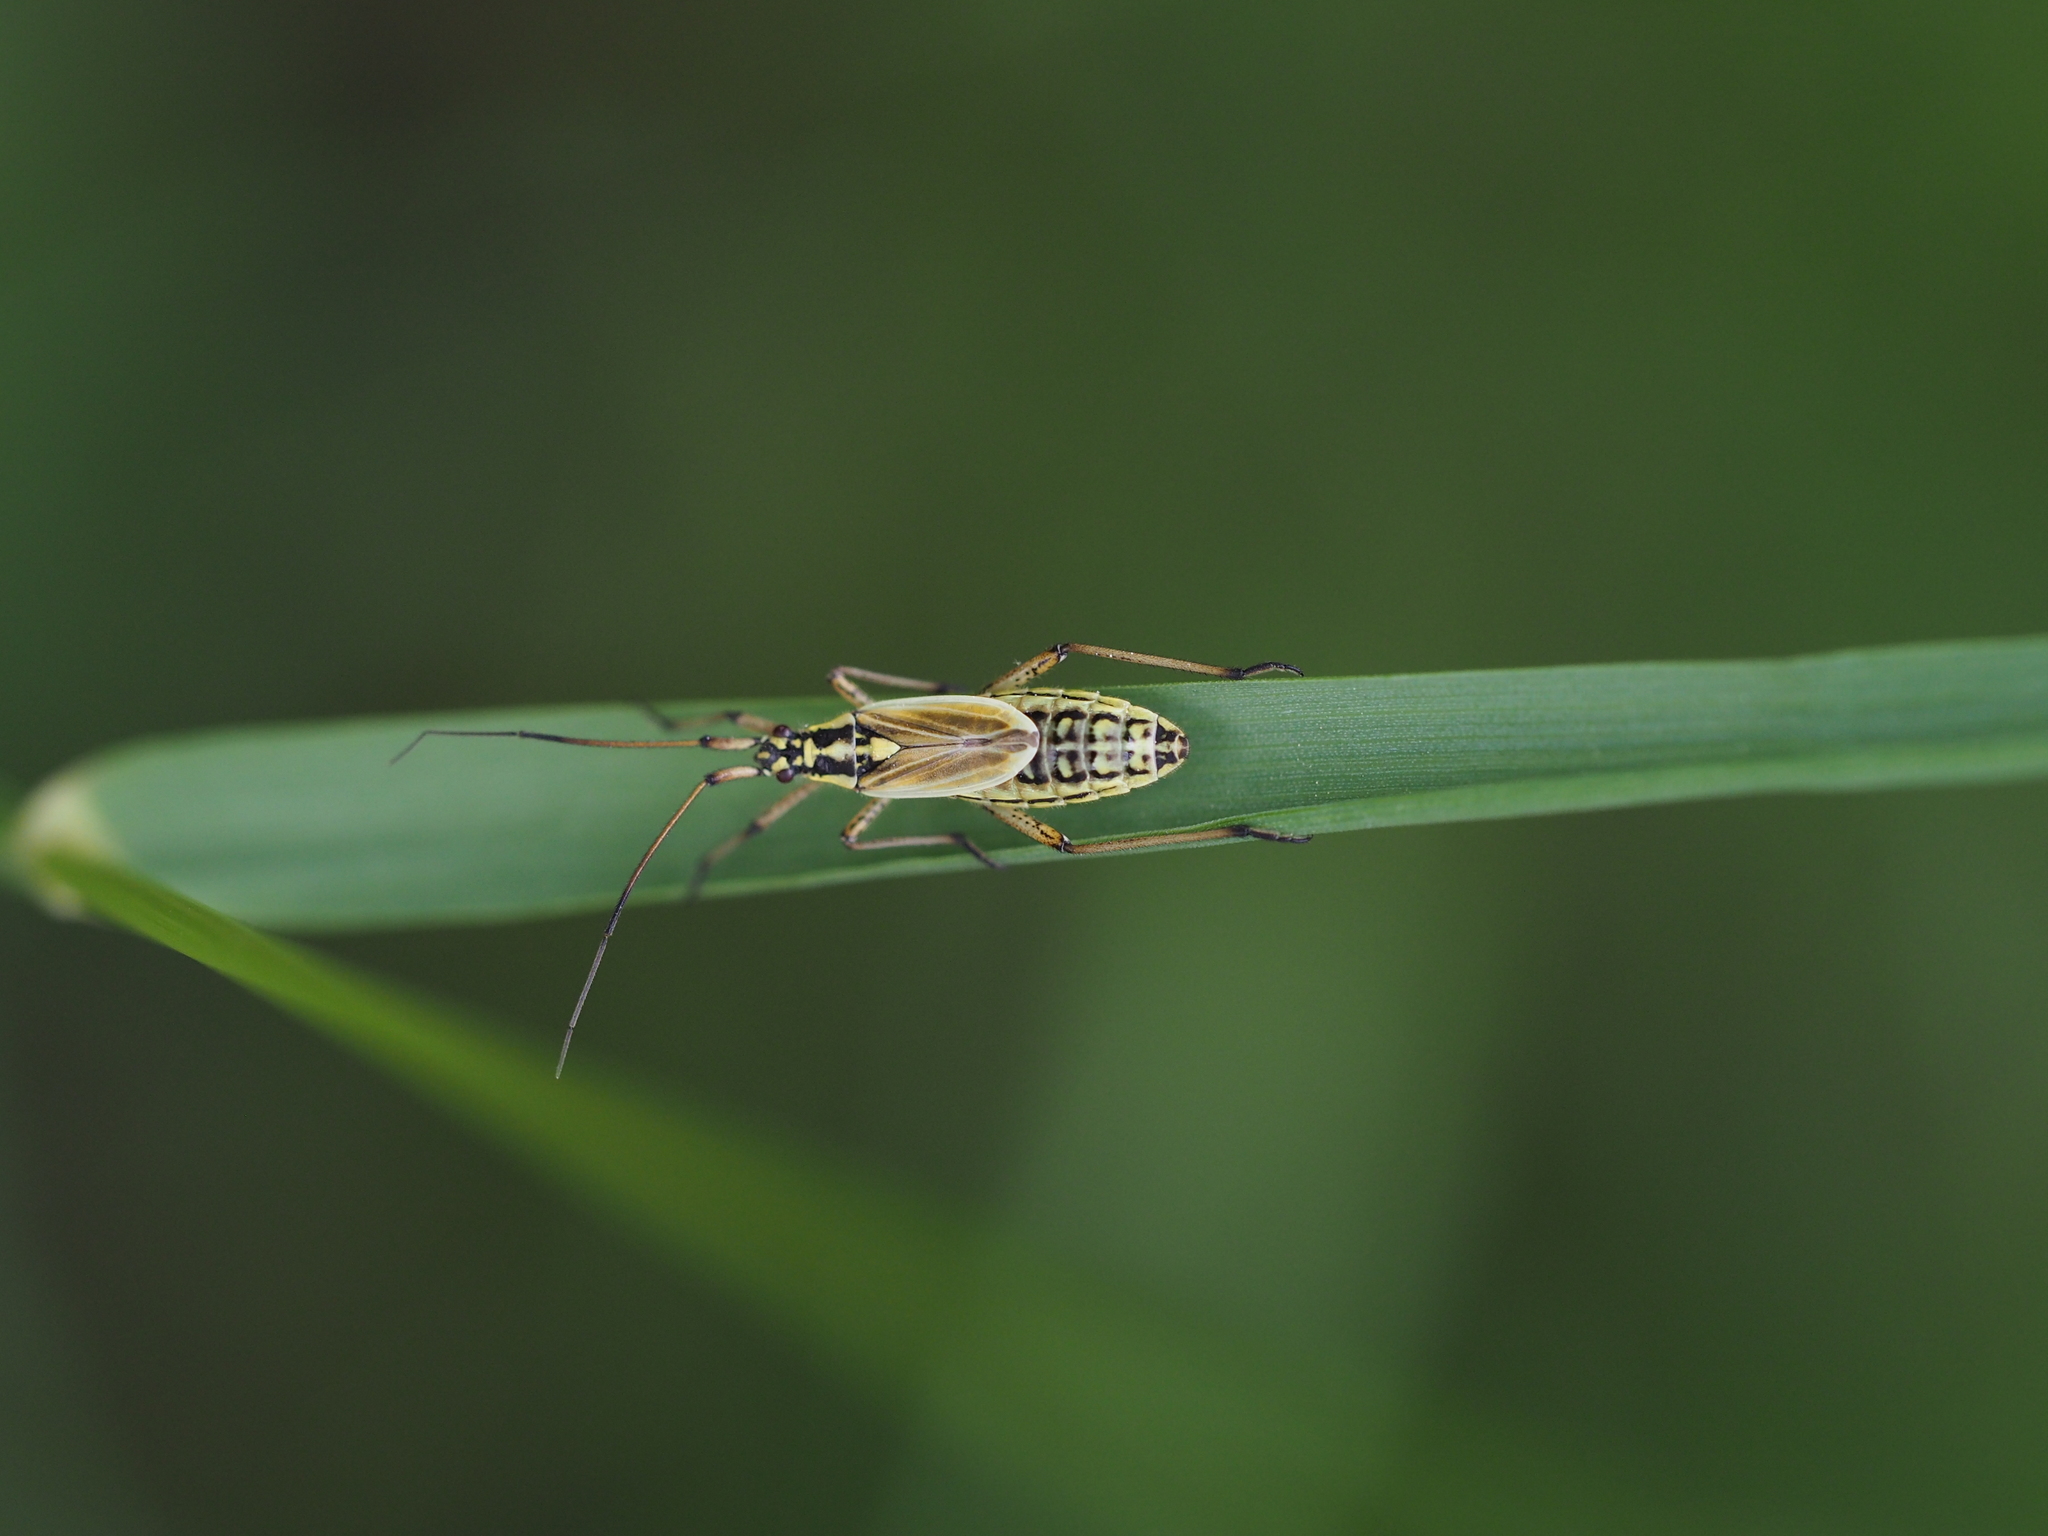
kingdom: Animalia
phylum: Arthropoda
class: Insecta
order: Hemiptera
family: Miridae
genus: Leptopterna
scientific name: Leptopterna dolabrata
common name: Meadow plant bug
